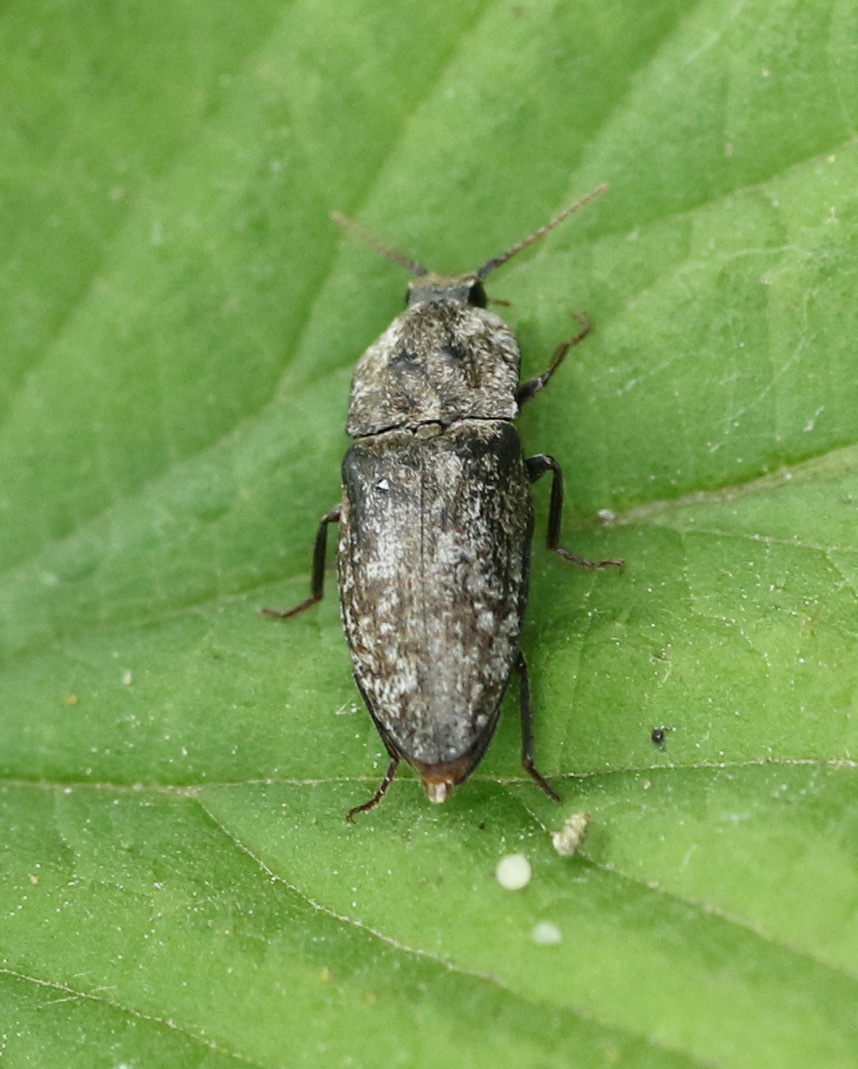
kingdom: Animalia
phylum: Arthropoda
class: Insecta
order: Coleoptera
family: Elateridae
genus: Agrypnus
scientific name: Agrypnus murinus
